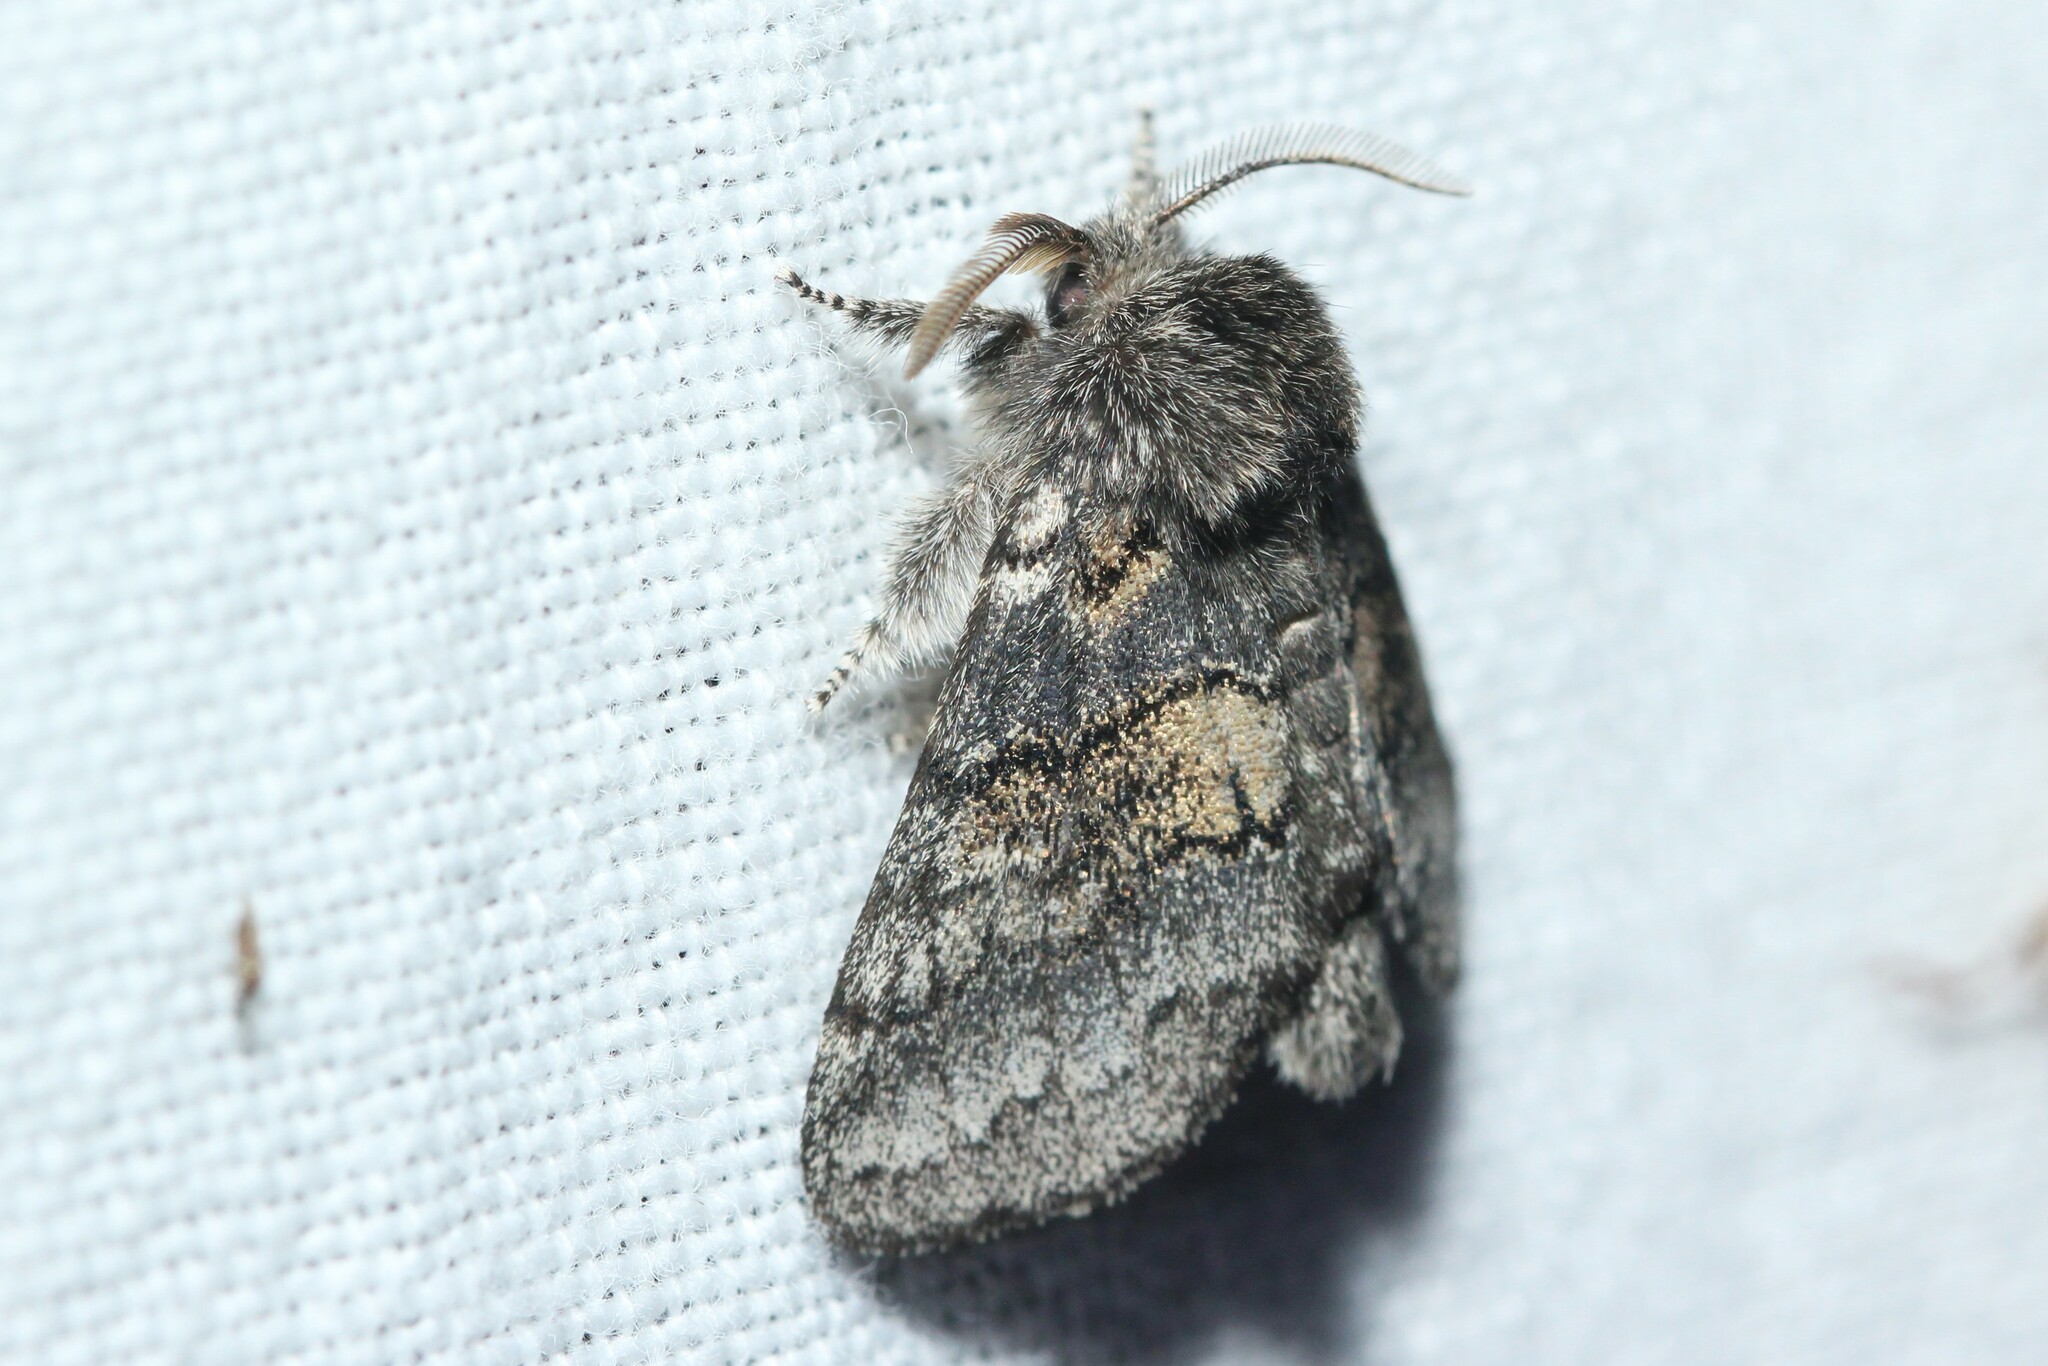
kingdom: Animalia
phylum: Arthropoda
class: Insecta
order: Lepidoptera
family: Notodontidae
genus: Gluphisia
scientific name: Gluphisia septentrionis
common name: Common gluphisia
